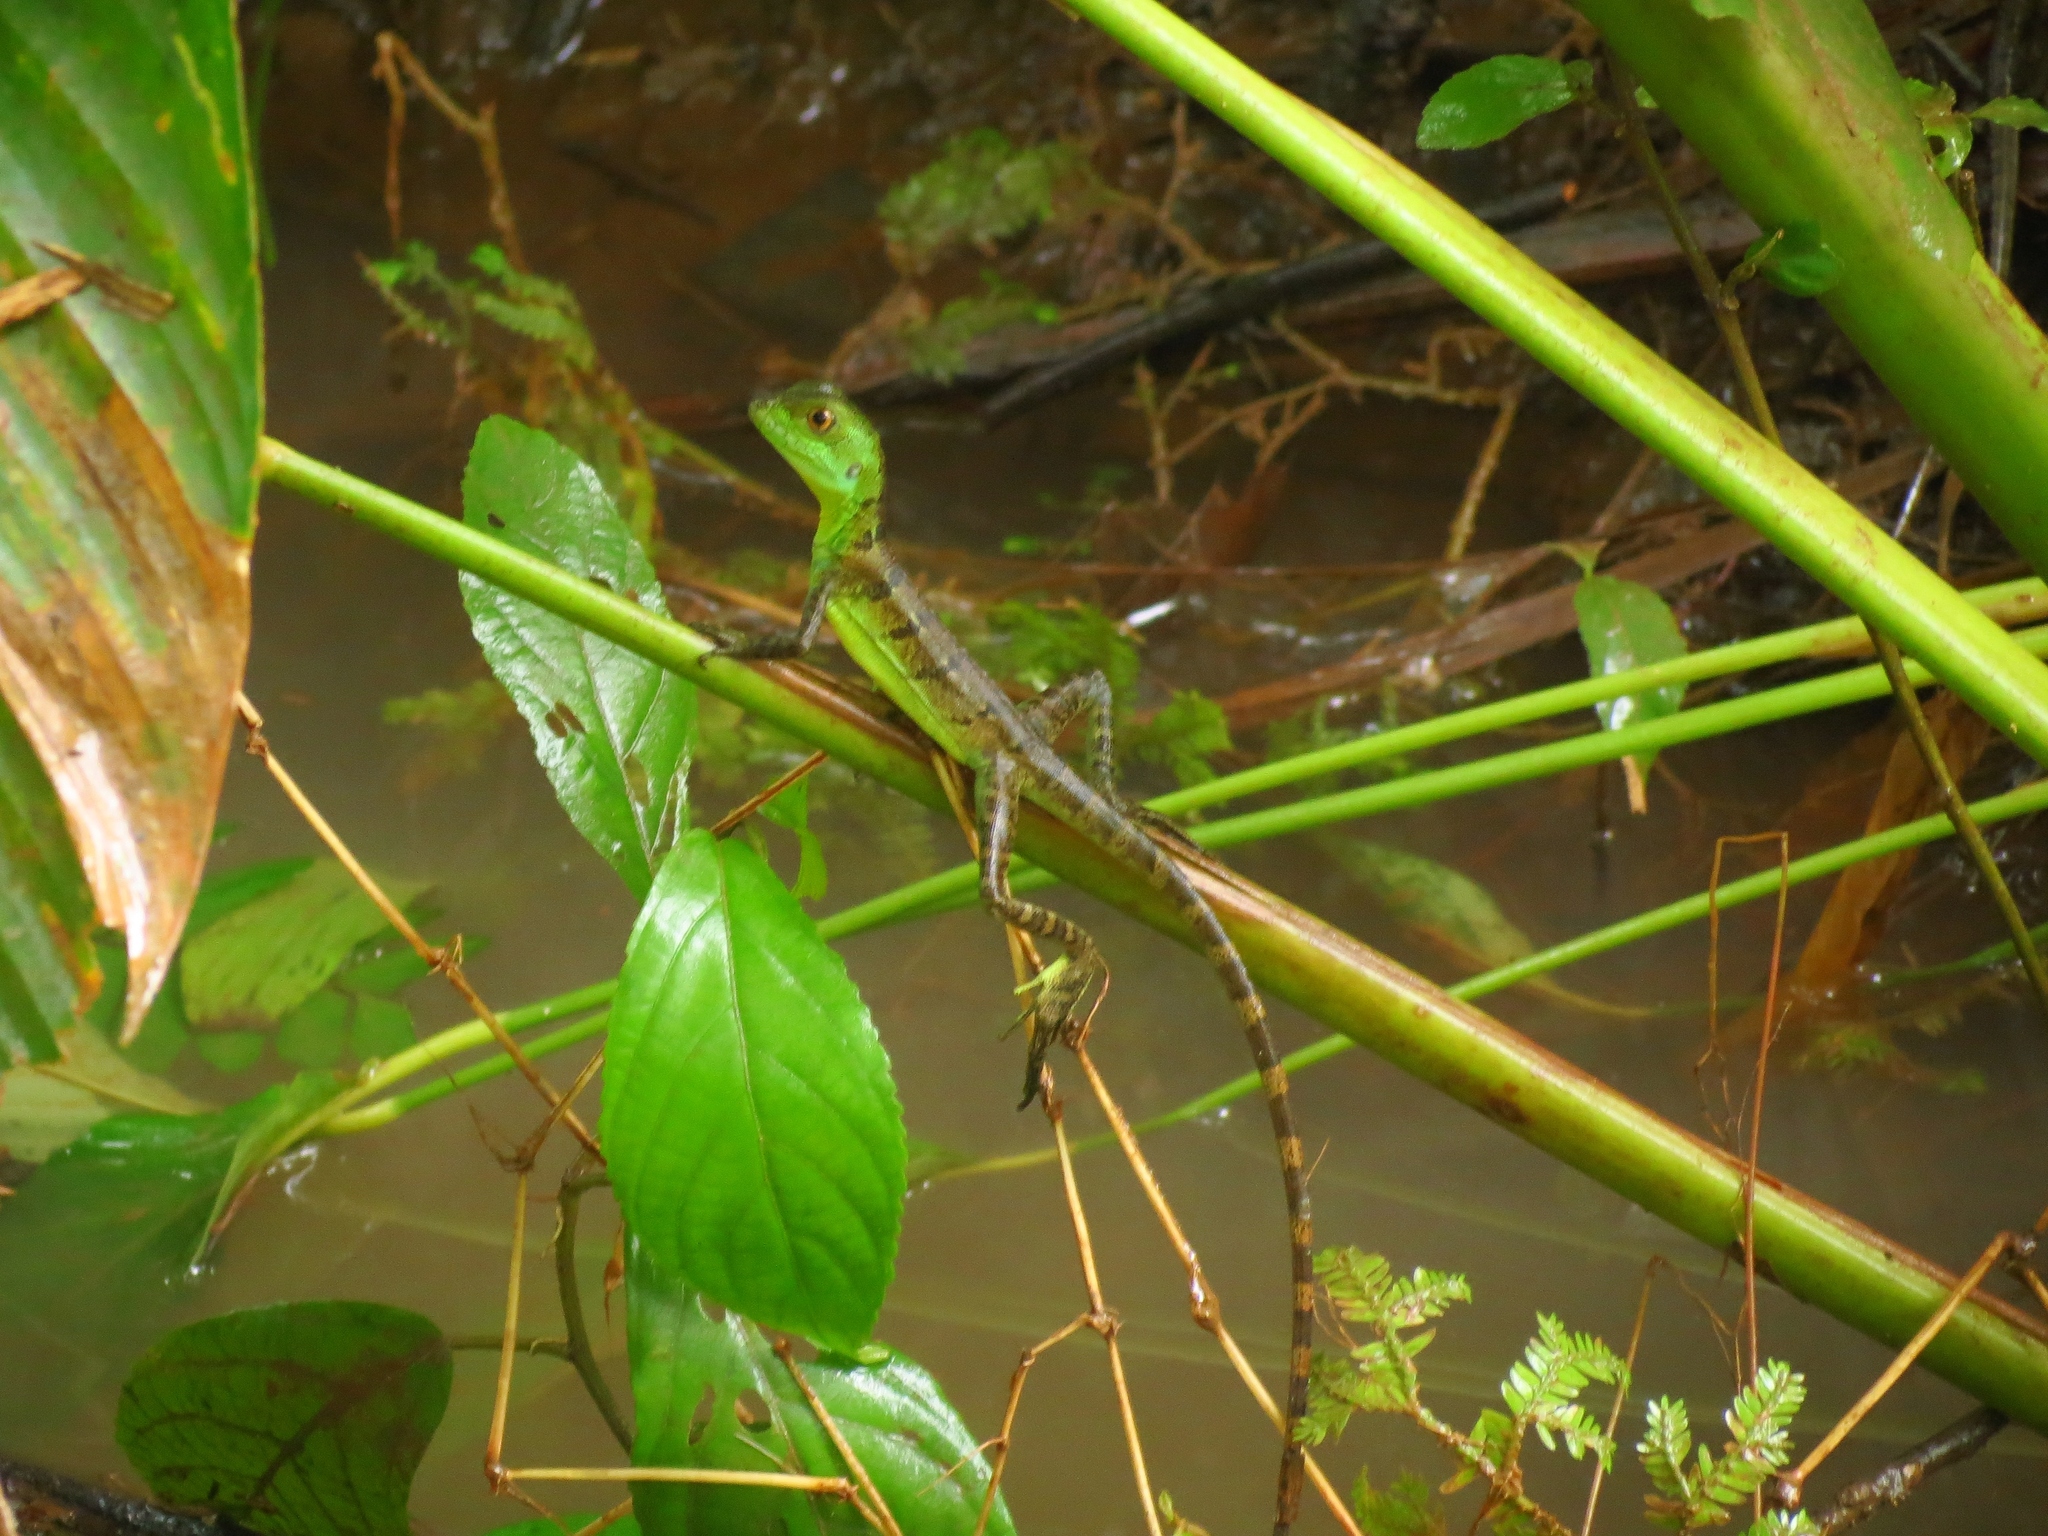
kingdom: Animalia
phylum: Chordata
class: Squamata
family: Corytophanidae
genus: Basiliscus
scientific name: Basiliscus plumifrons
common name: Green basilisk
